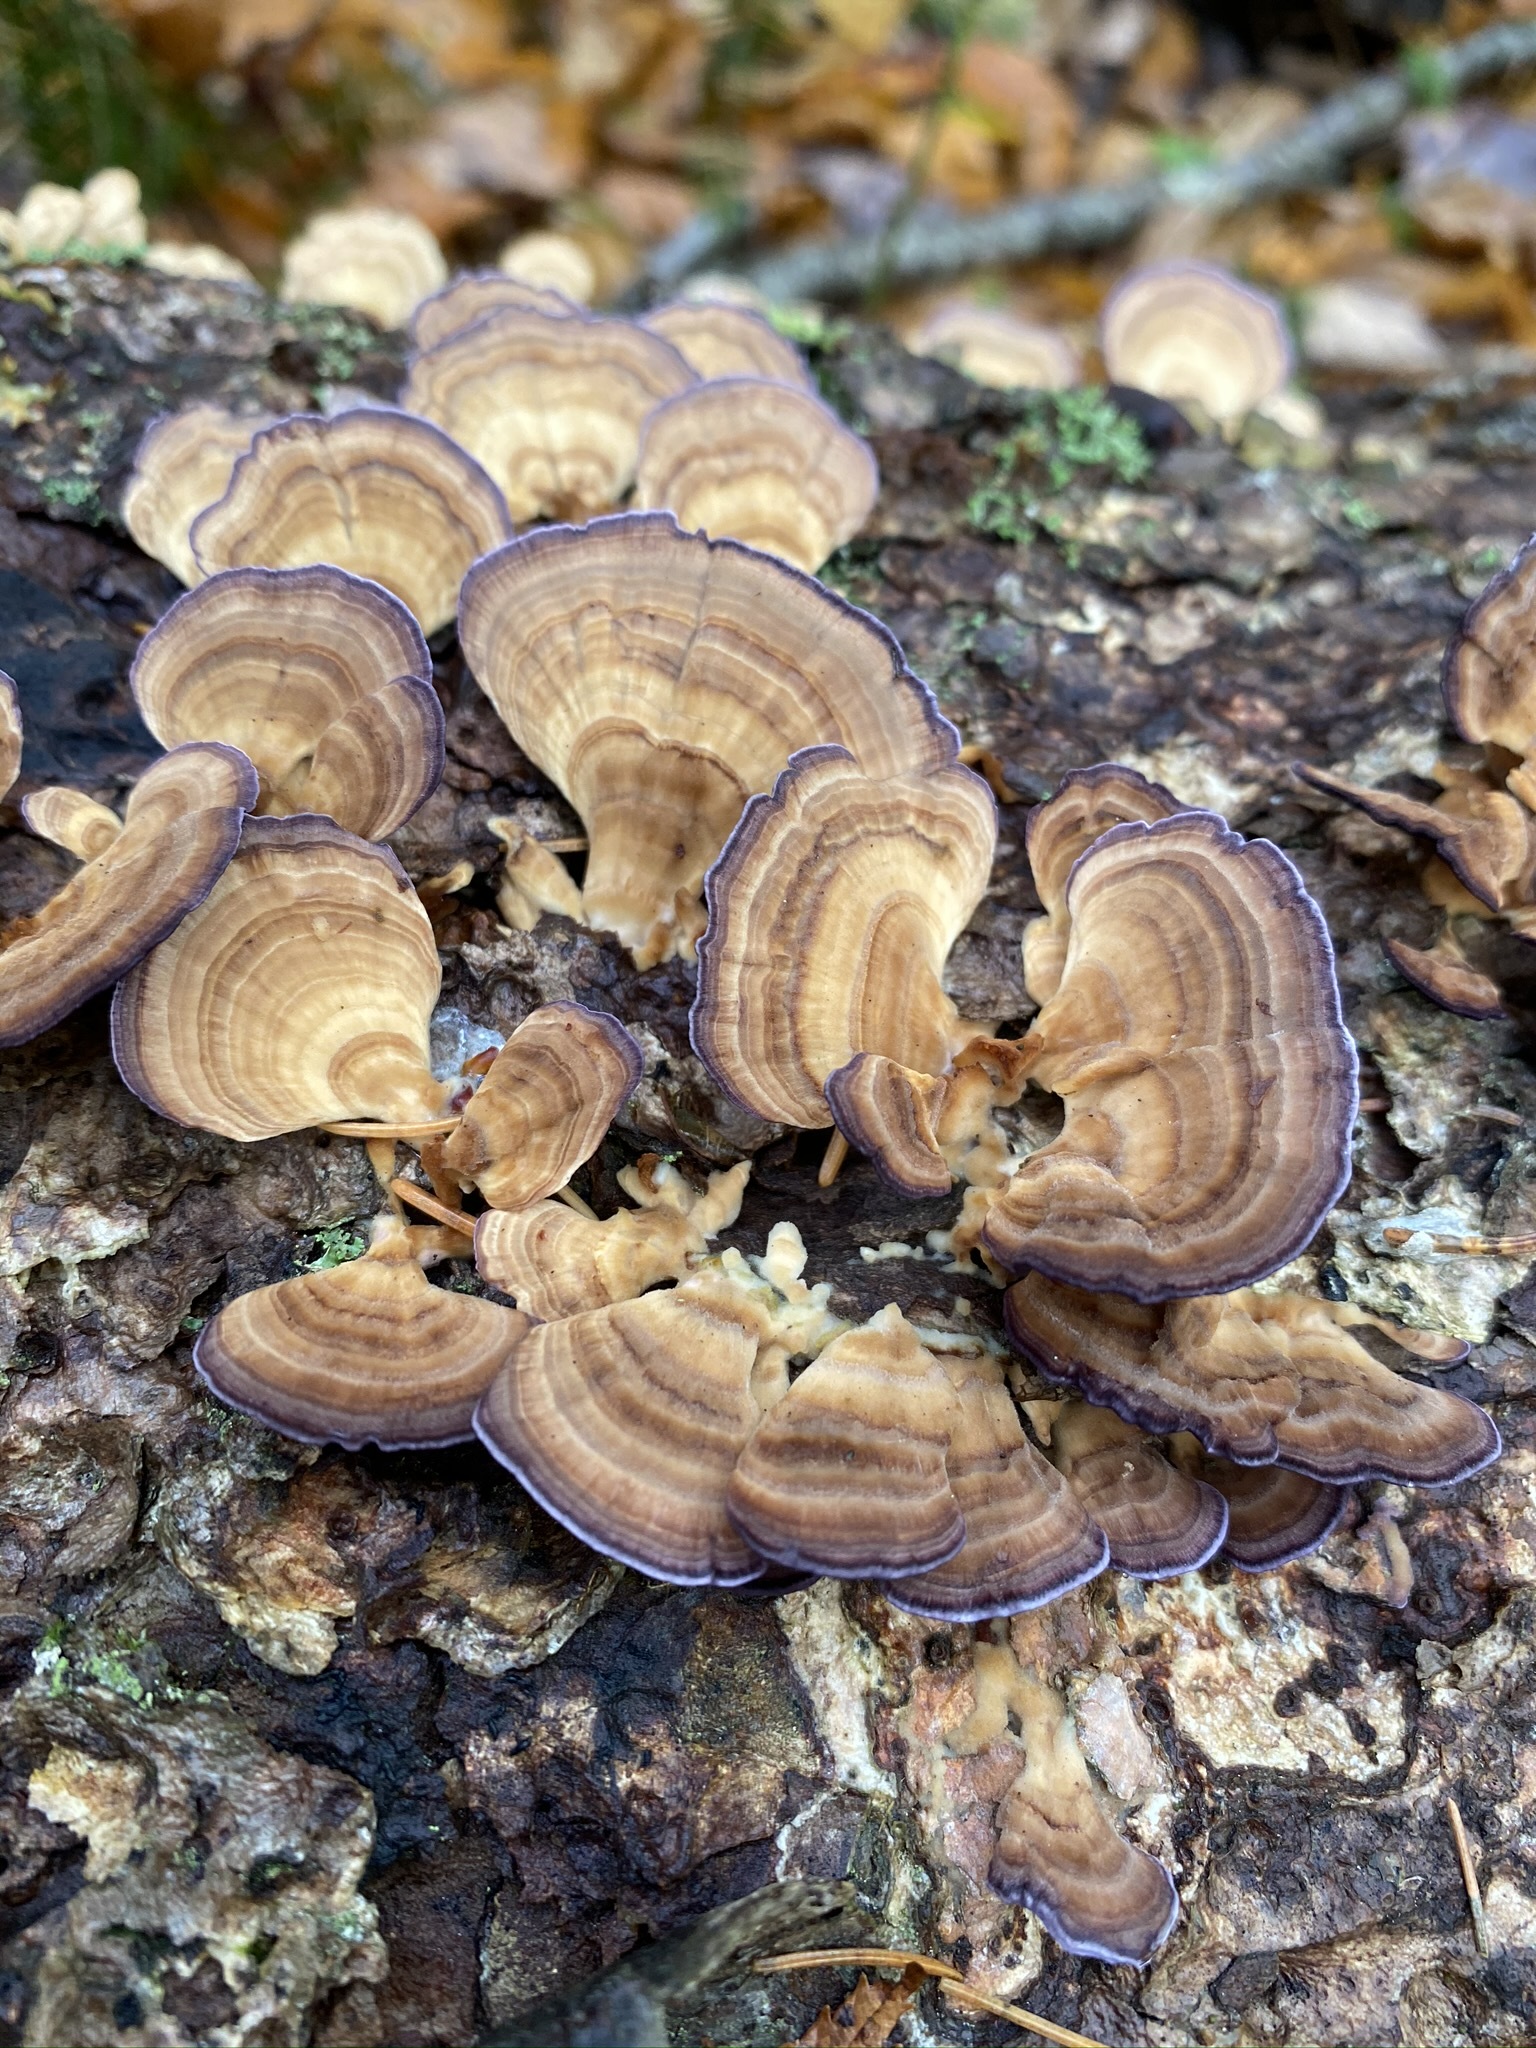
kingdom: Fungi
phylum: Basidiomycota
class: Agaricomycetes
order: Hymenochaetales
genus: Trichaptum
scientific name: Trichaptum biforme
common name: Violet-toothed polypore
